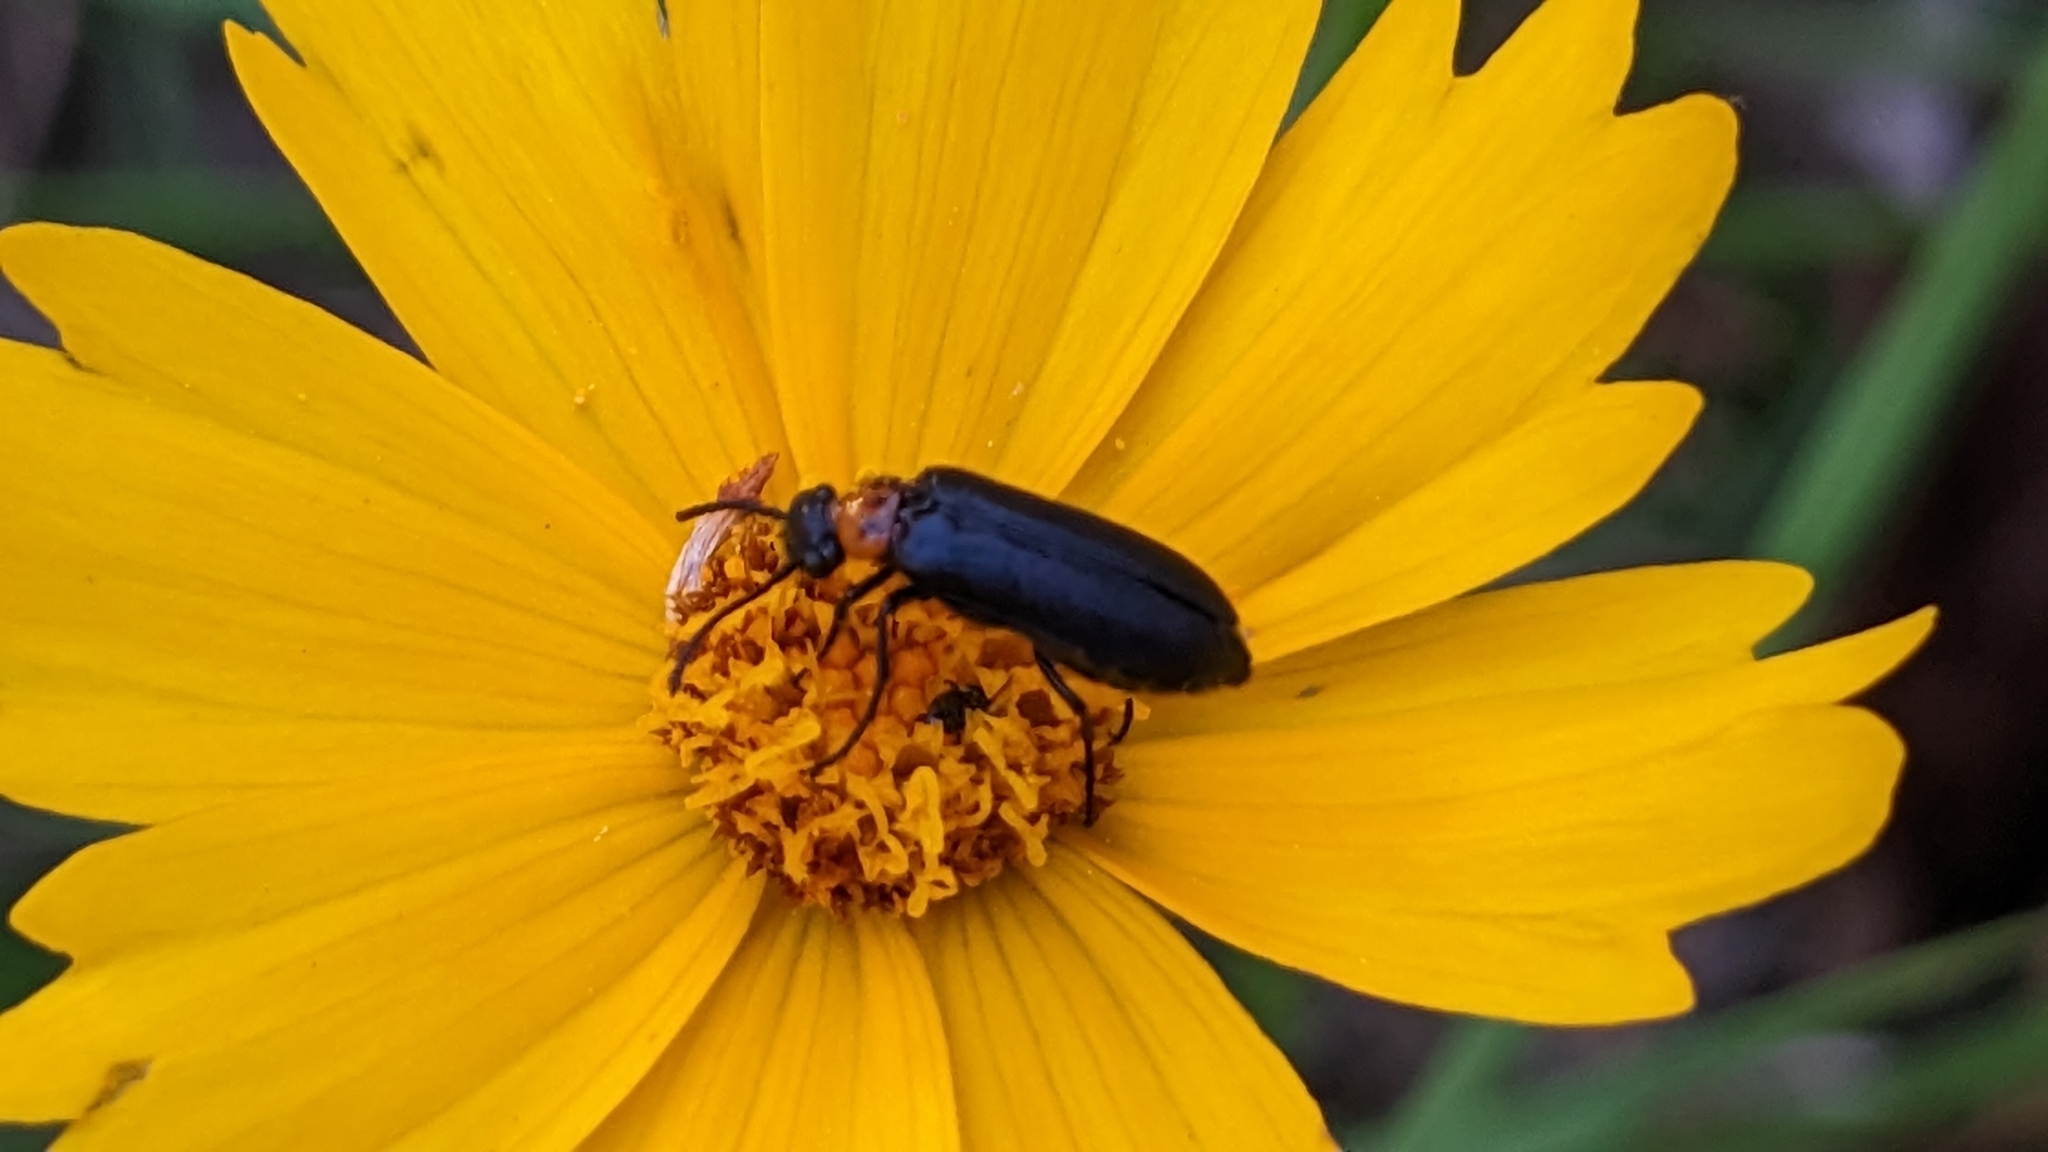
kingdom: Animalia
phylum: Arthropoda
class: Insecta
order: Coleoptera
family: Meloidae
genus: Nemognatha
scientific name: Nemognatha nemorensis
